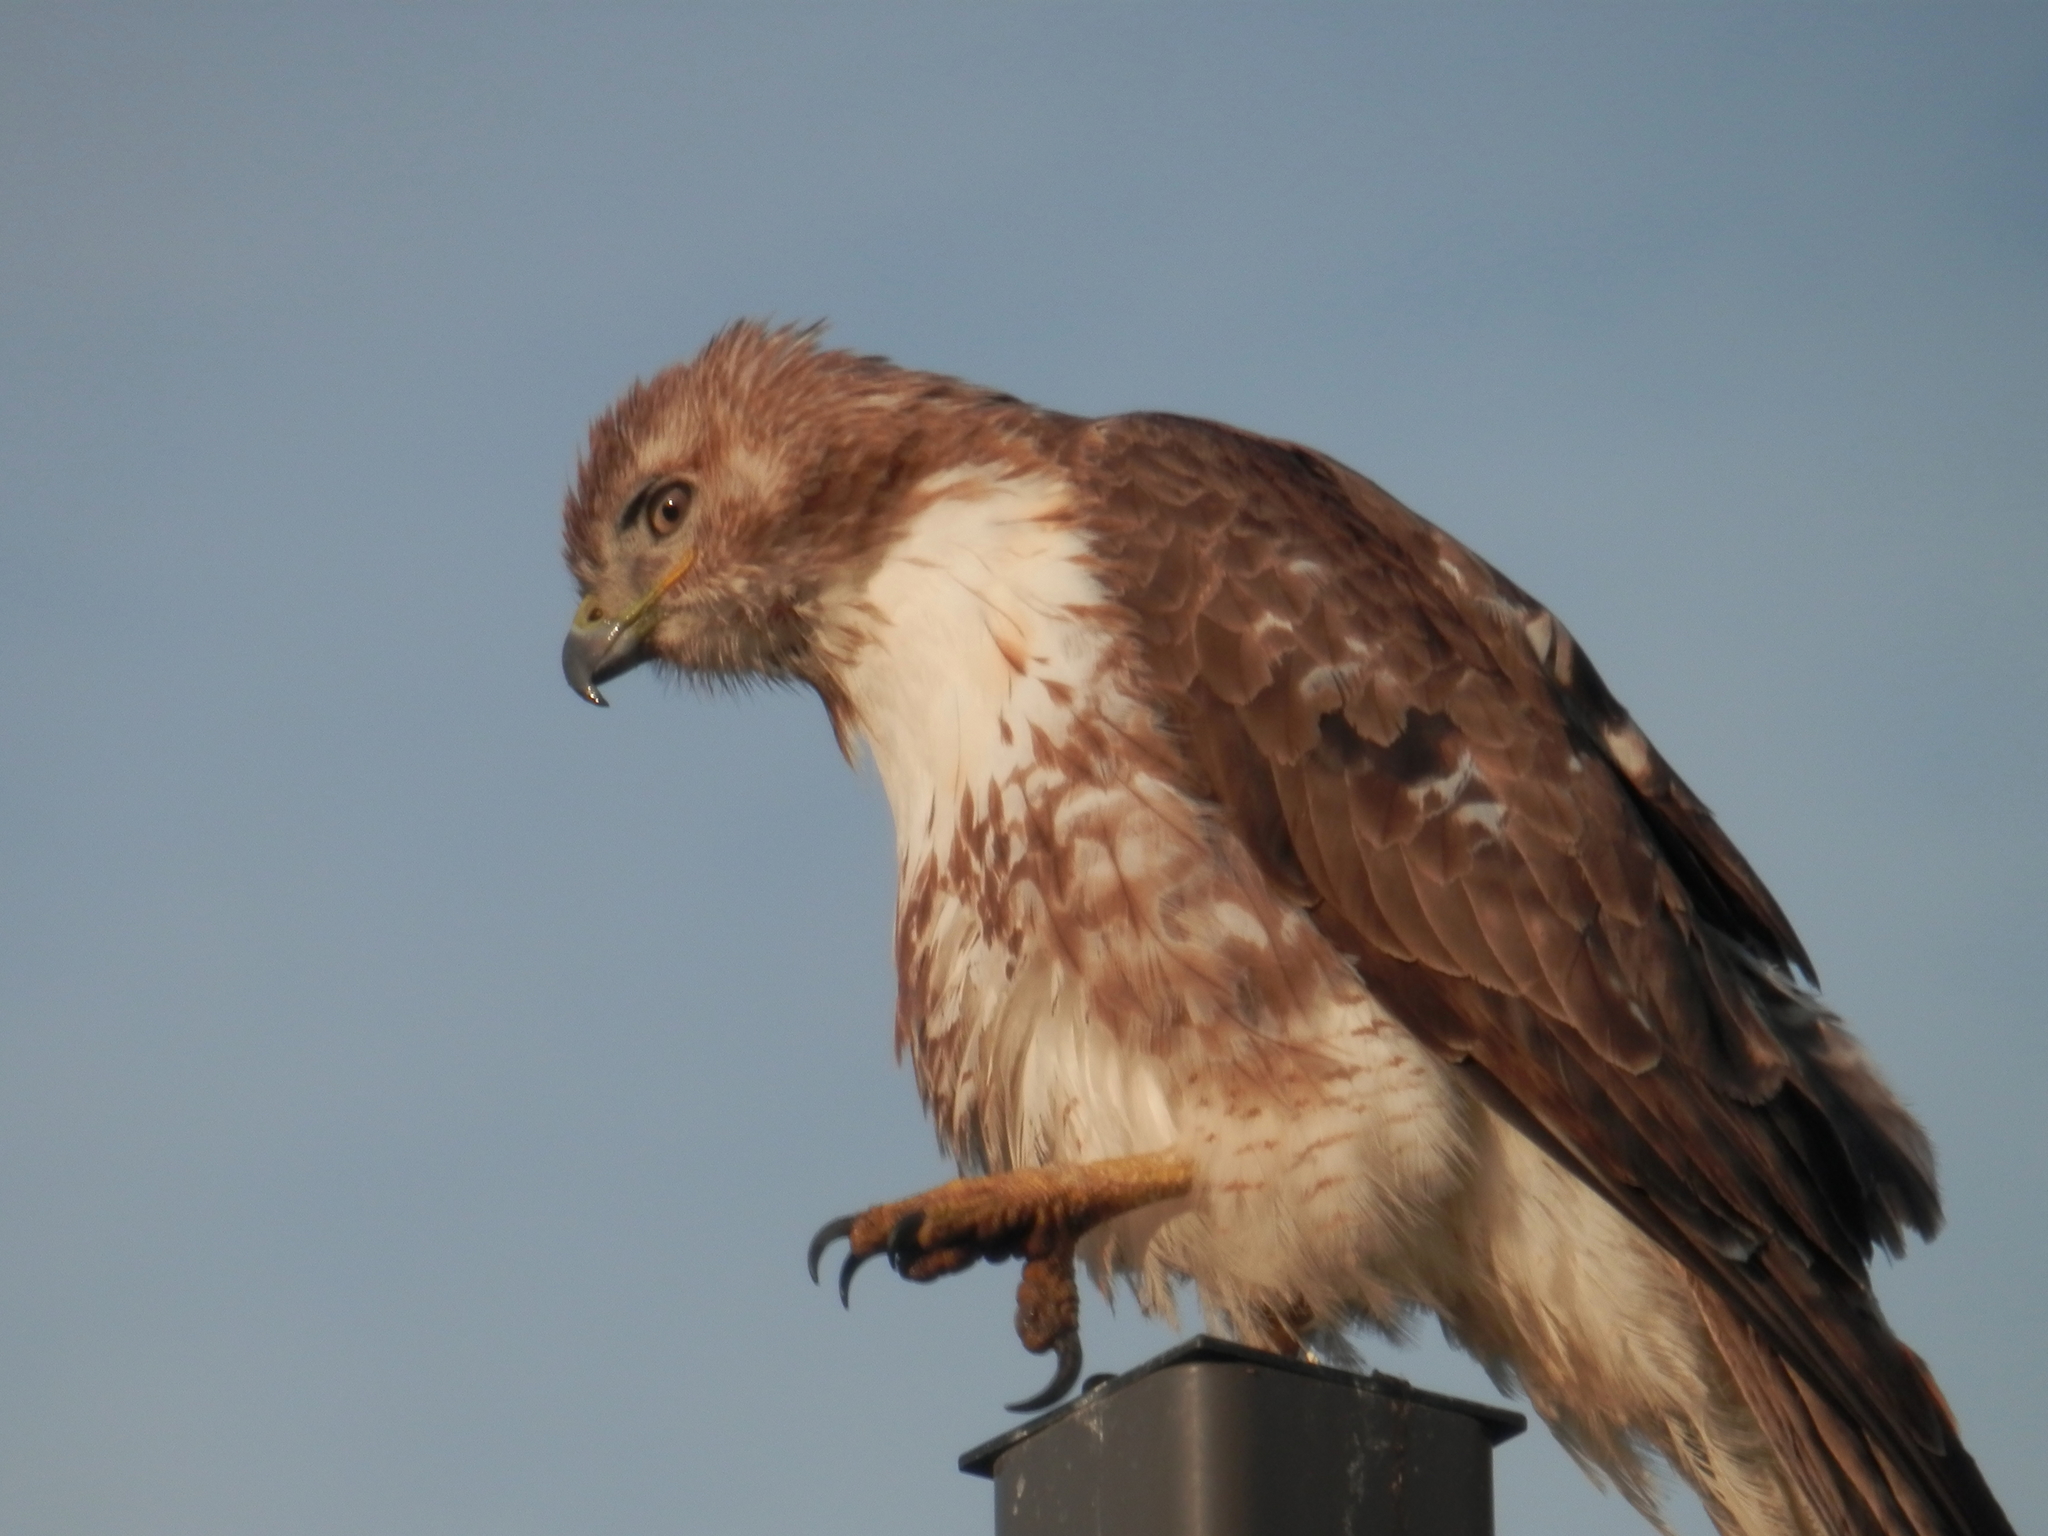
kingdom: Animalia
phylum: Chordata
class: Aves
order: Accipitriformes
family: Accipitridae
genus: Buteo
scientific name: Buteo jamaicensis
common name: Red-tailed hawk
